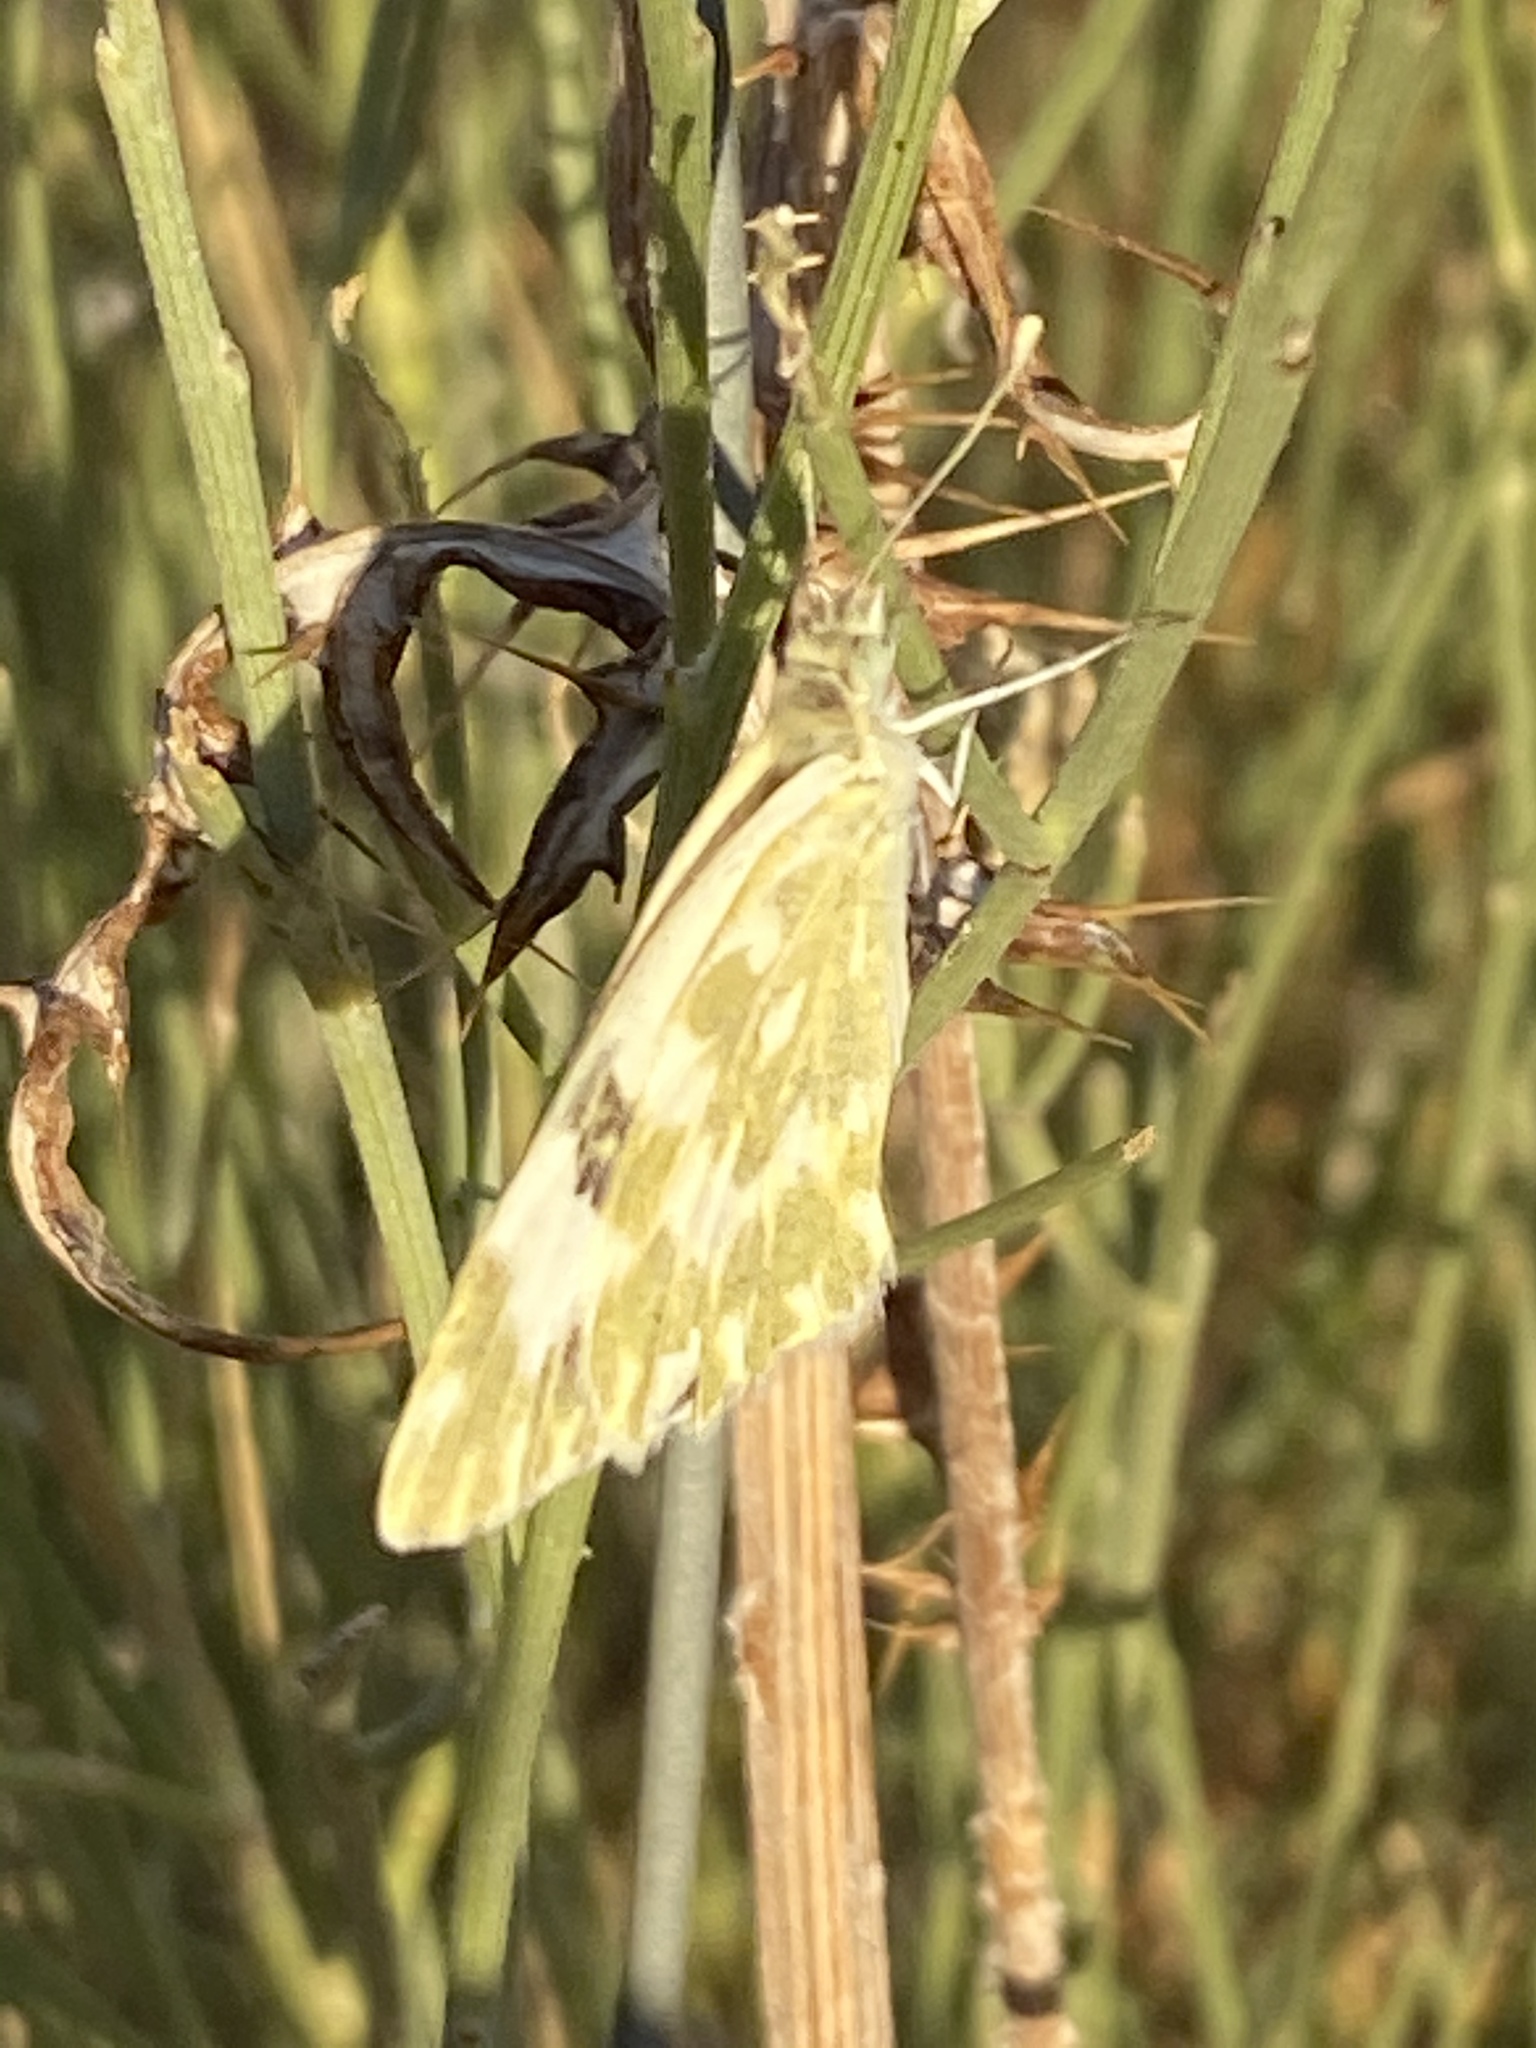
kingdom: Animalia
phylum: Arthropoda
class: Insecta
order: Lepidoptera
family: Pieridae
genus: Pontia
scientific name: Pontia daplidice
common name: Bath white
